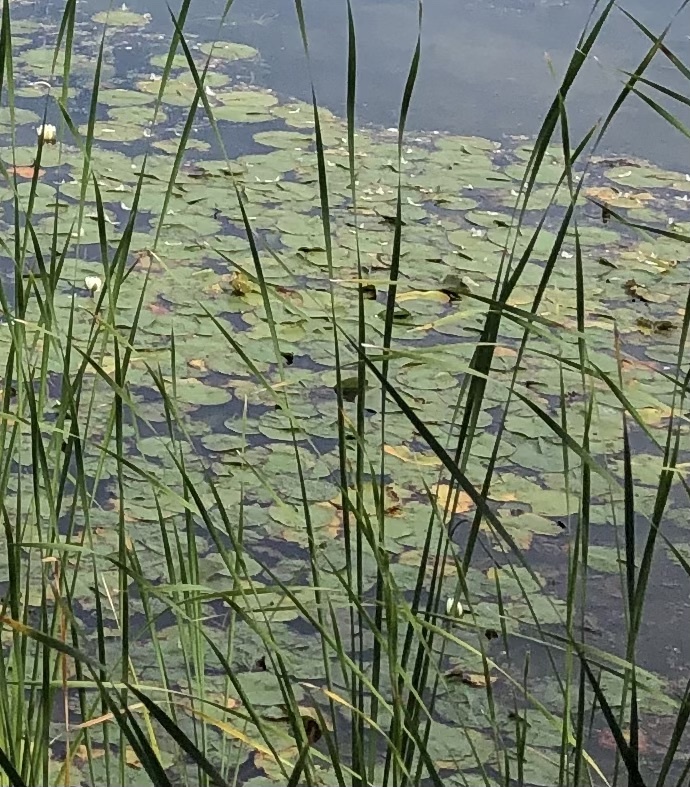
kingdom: Plantae
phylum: Tracheophyta
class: Magnoliopsida
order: Nymphaeales
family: Nymphaeaceae
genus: Nymphaea
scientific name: Nymphaea odorata
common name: Fragrant water-lily
